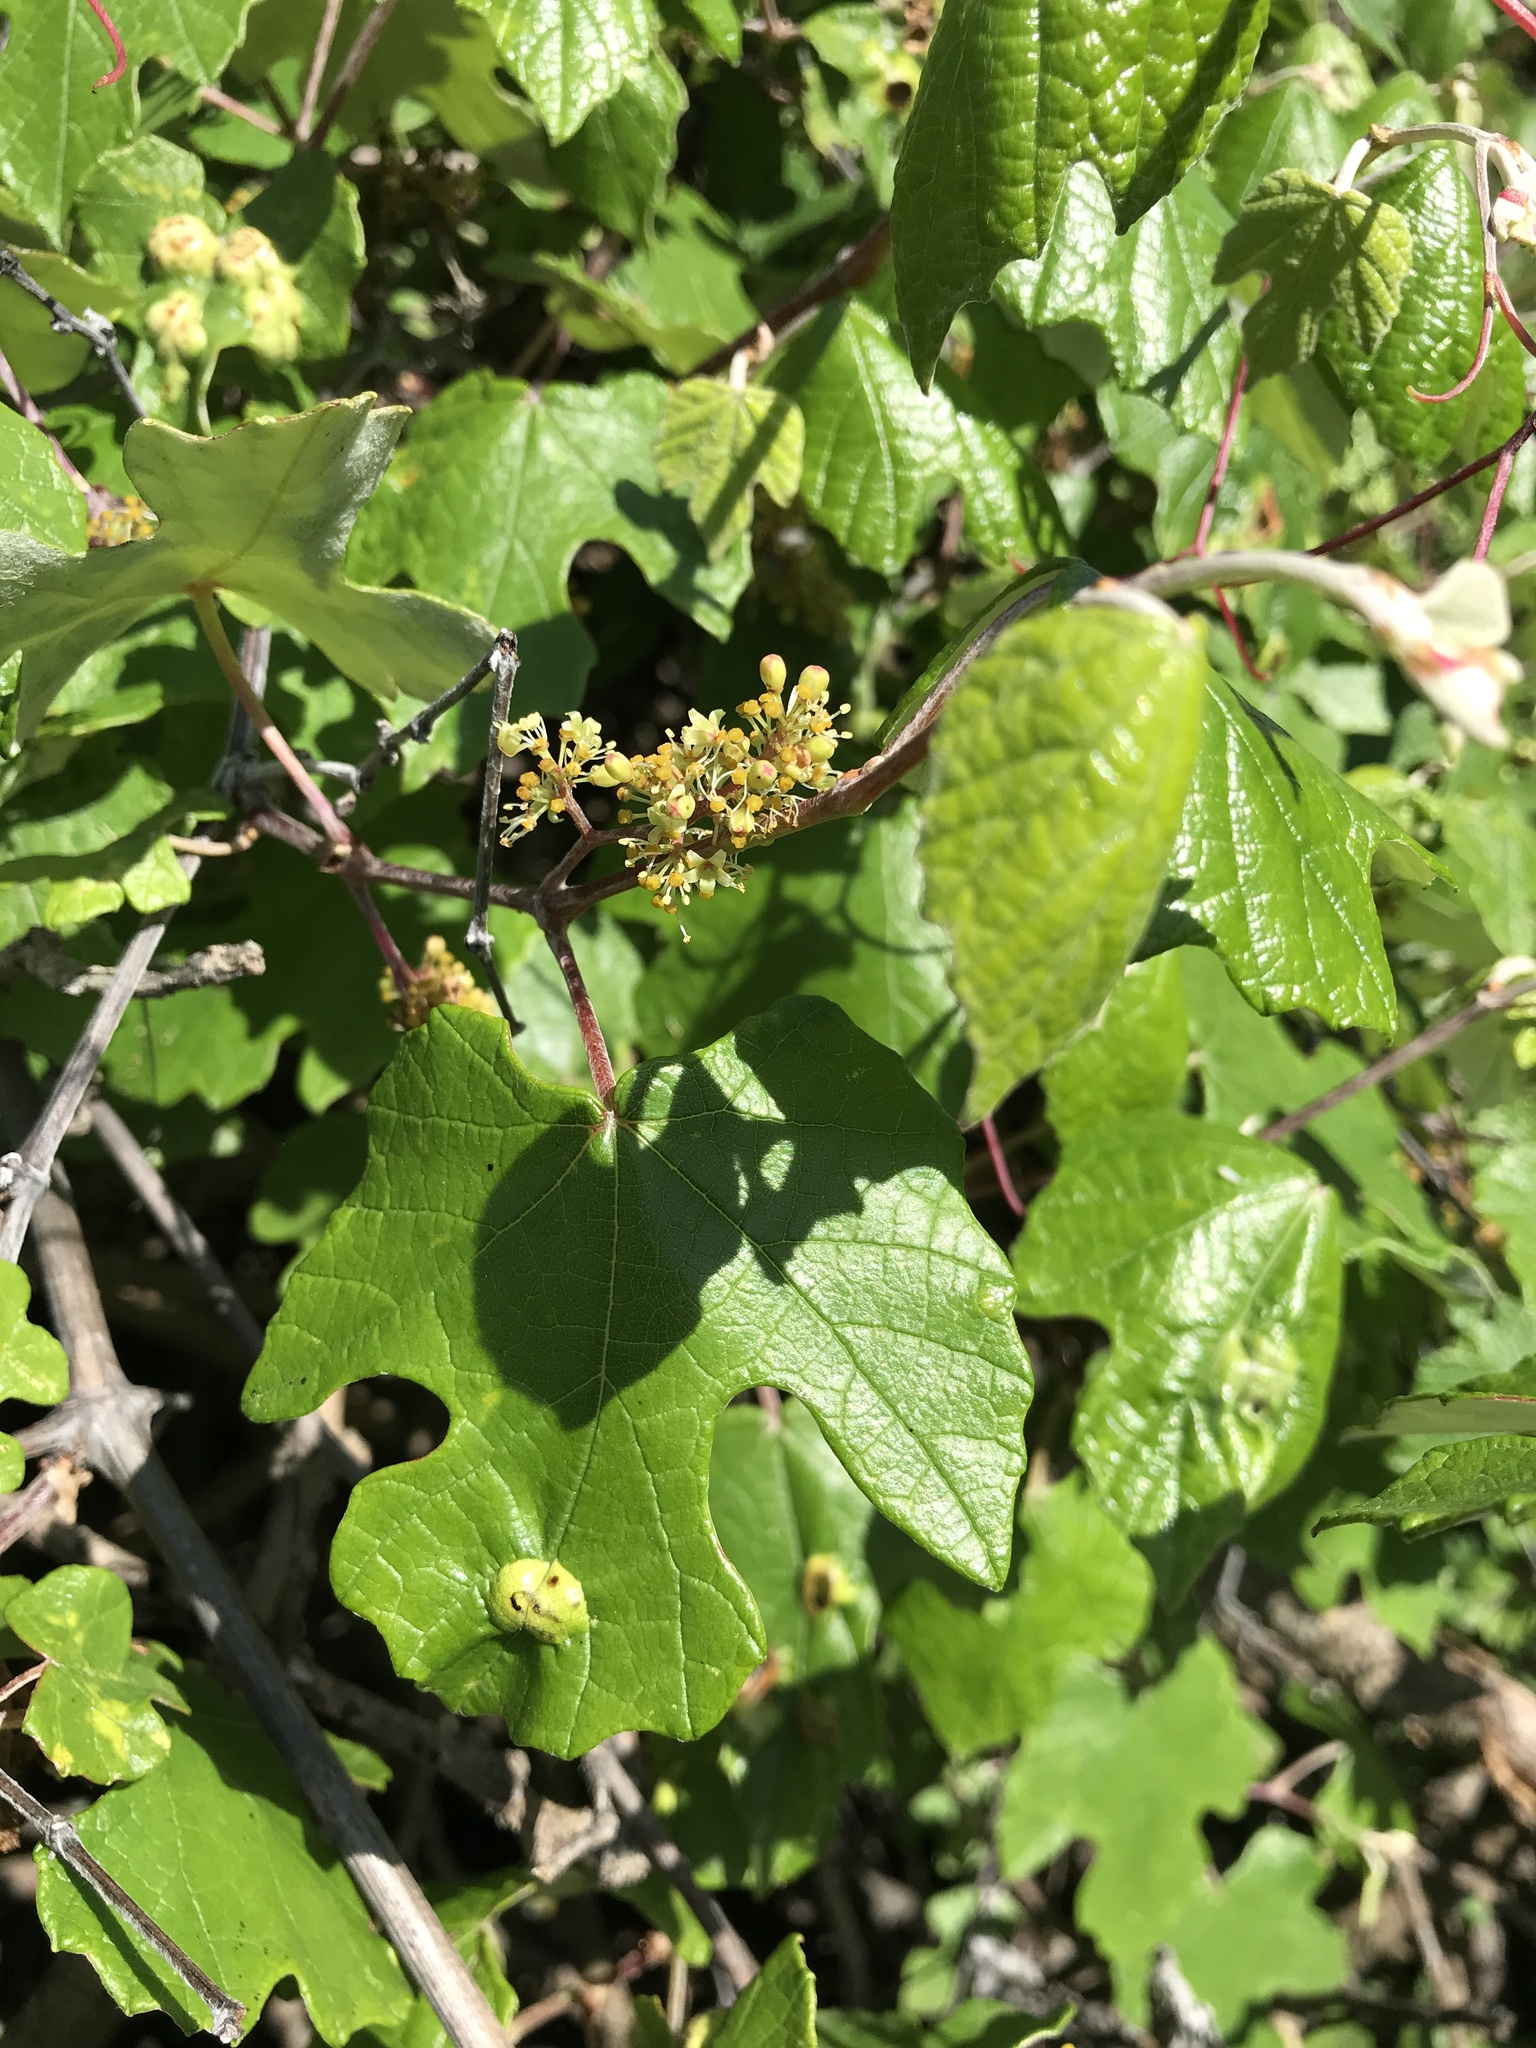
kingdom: Plantae
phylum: Tracheophyta
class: Magnoliopsida
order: Vitales
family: Vitaceae
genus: Vitis
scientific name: Vitis mustangensis
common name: Mustang grape
